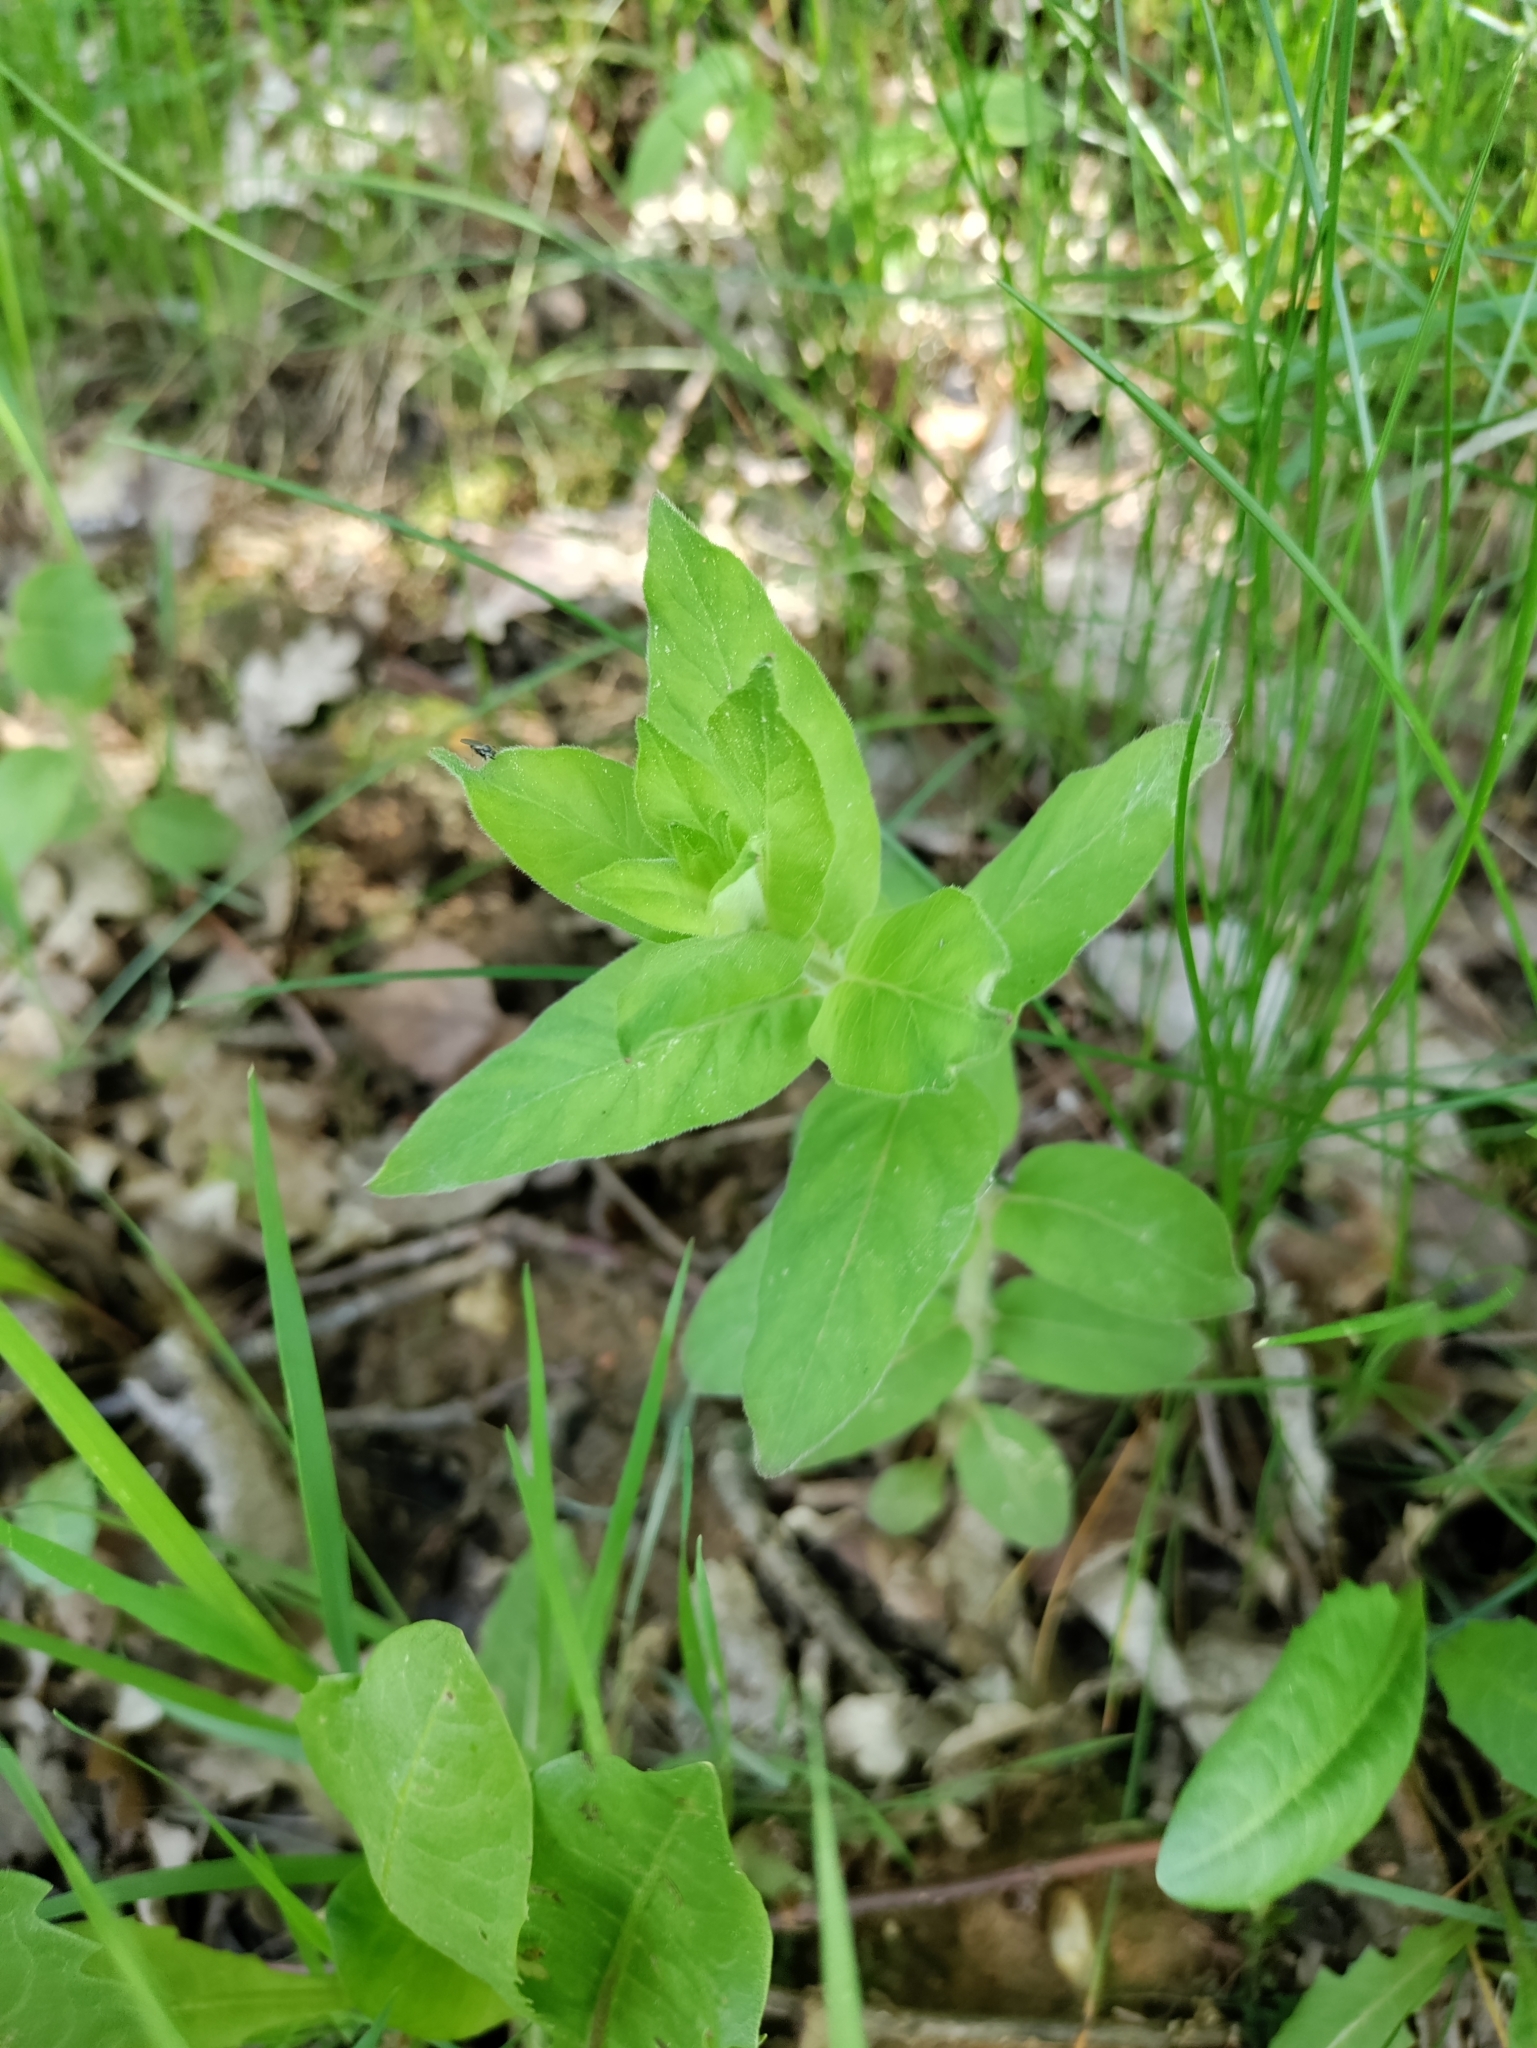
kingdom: Plantae
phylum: Tracheophyta
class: Magnoliopsida
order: Ericales
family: Primulaceae
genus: Lysimachia
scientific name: Lysimachia punctata
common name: Dotted loosestrife
